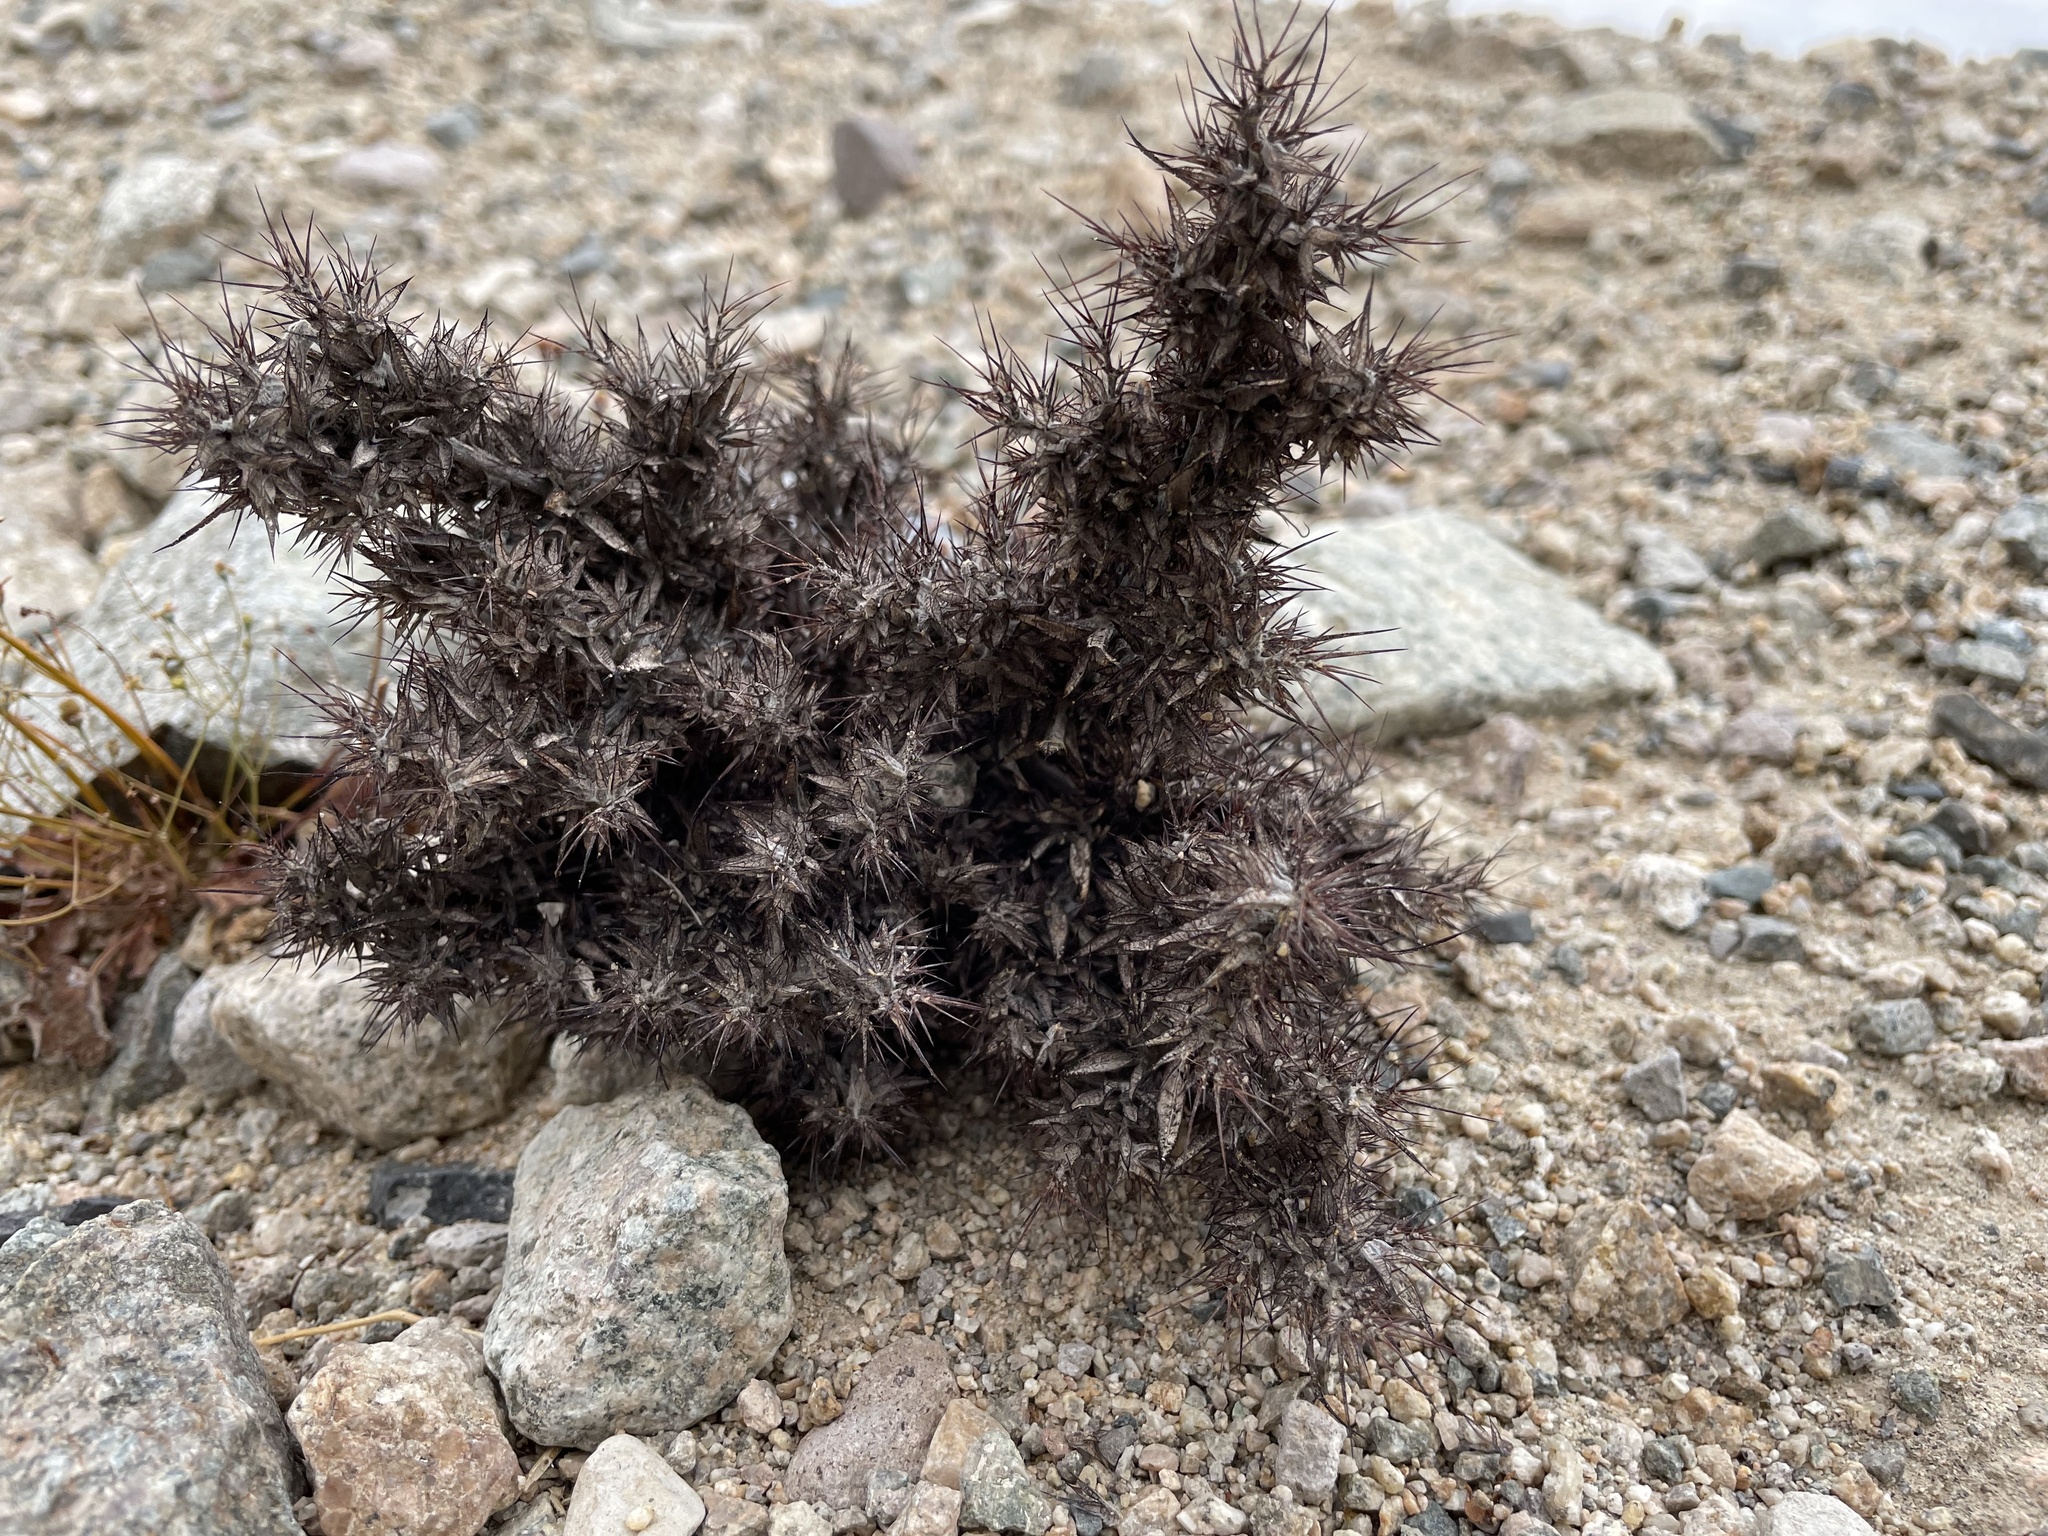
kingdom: Plantae
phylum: Tracheophyta
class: Magnoliopsida
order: Caryophyllales
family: Polygonaceae
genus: Chorizanthe
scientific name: Chorizanthe rigida
